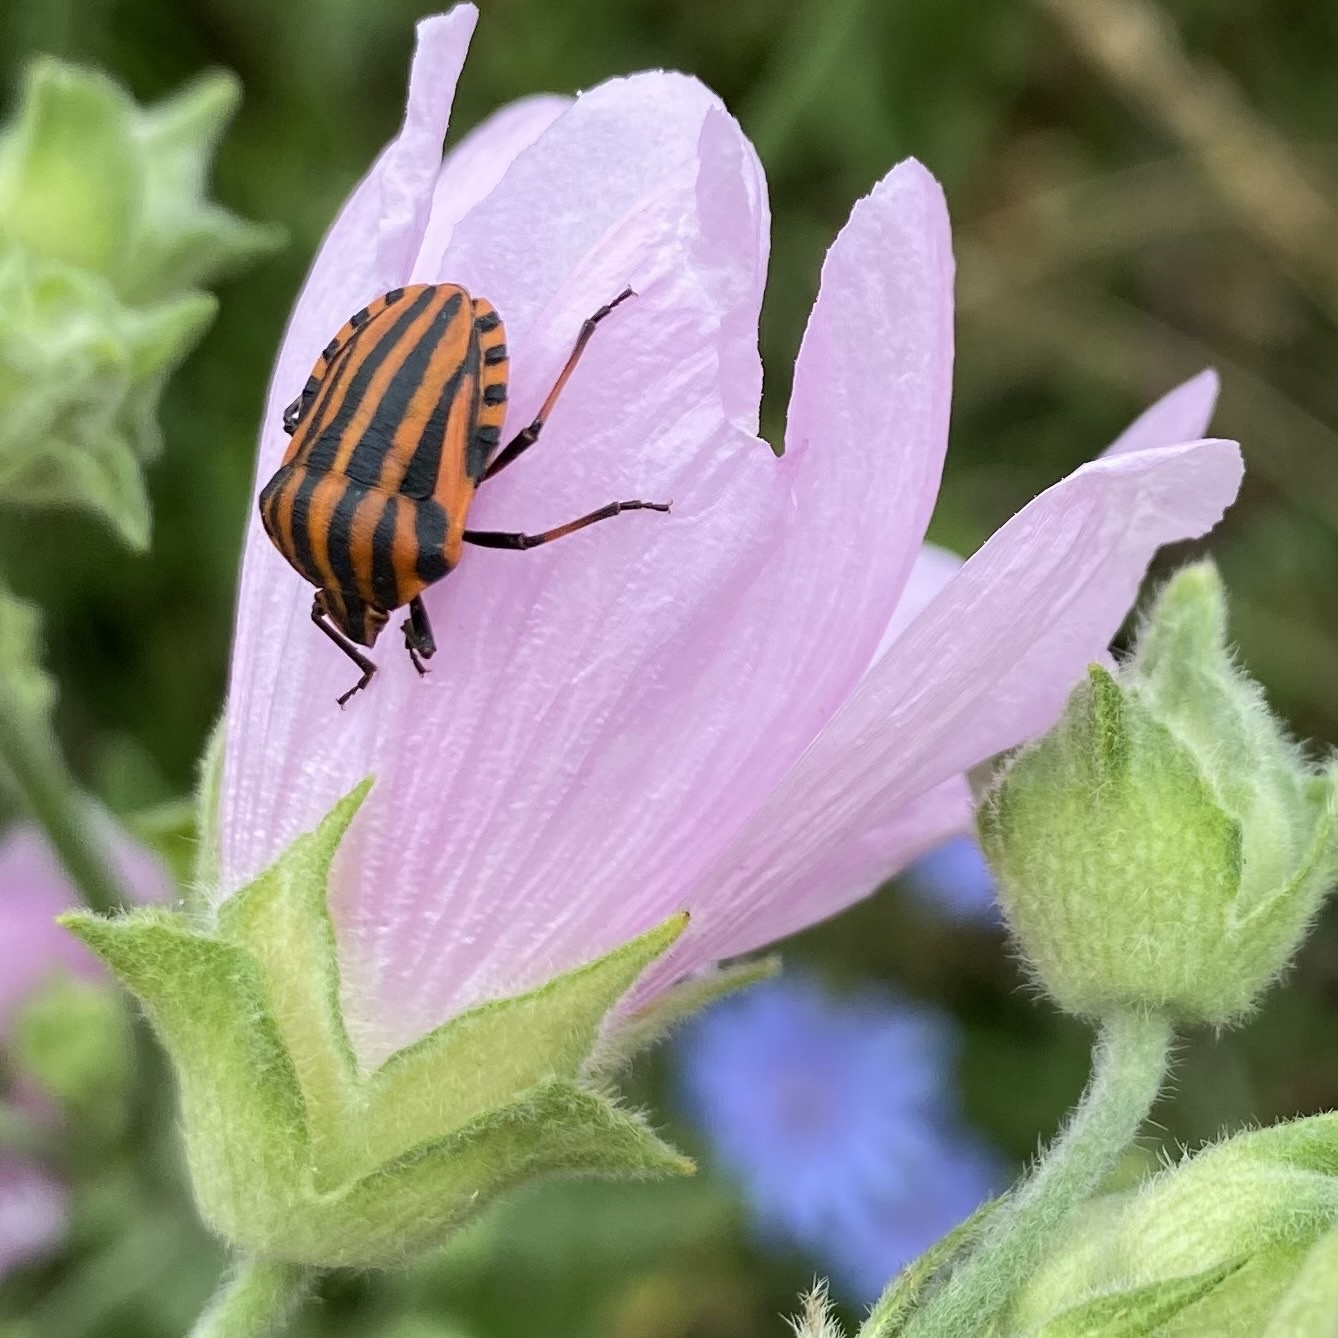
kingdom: Animalia
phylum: Arthropoda
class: Insecta
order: Hemiptera
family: Pentatomidae
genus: Graphosoma
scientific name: Graphosoma italicum
